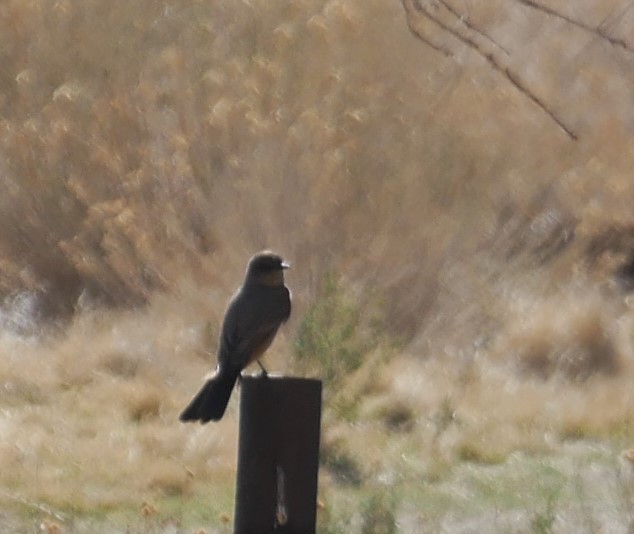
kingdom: Animalia
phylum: Chordata
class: Aves
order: Passeriformes
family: Tyrannidae
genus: Sayornis
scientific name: Sayornis saya
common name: Say's phoebe
